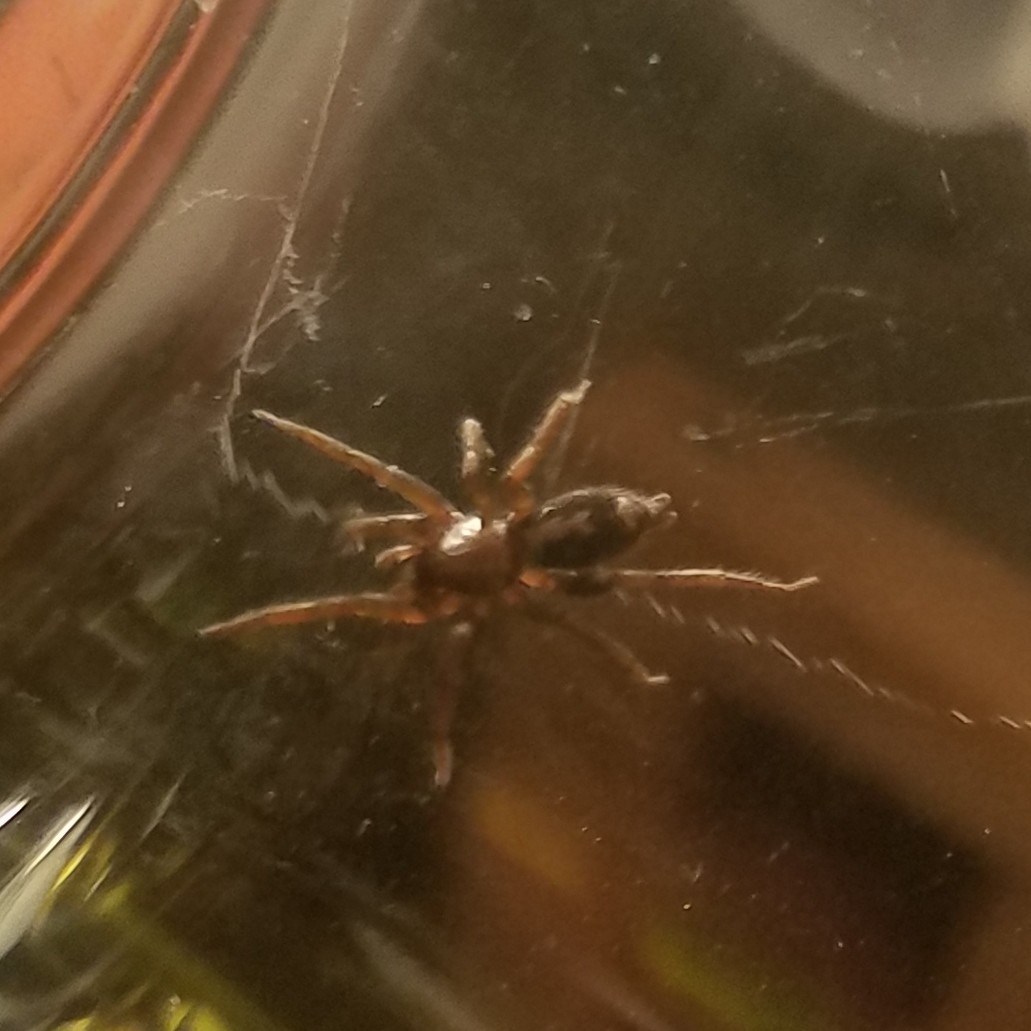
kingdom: Animalia
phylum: Arthropoda
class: Arachnida
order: Araneae
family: Gnaphosidae
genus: Herpyllus
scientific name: Herpyllus ecclesiasticus
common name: Eastern parson spider
